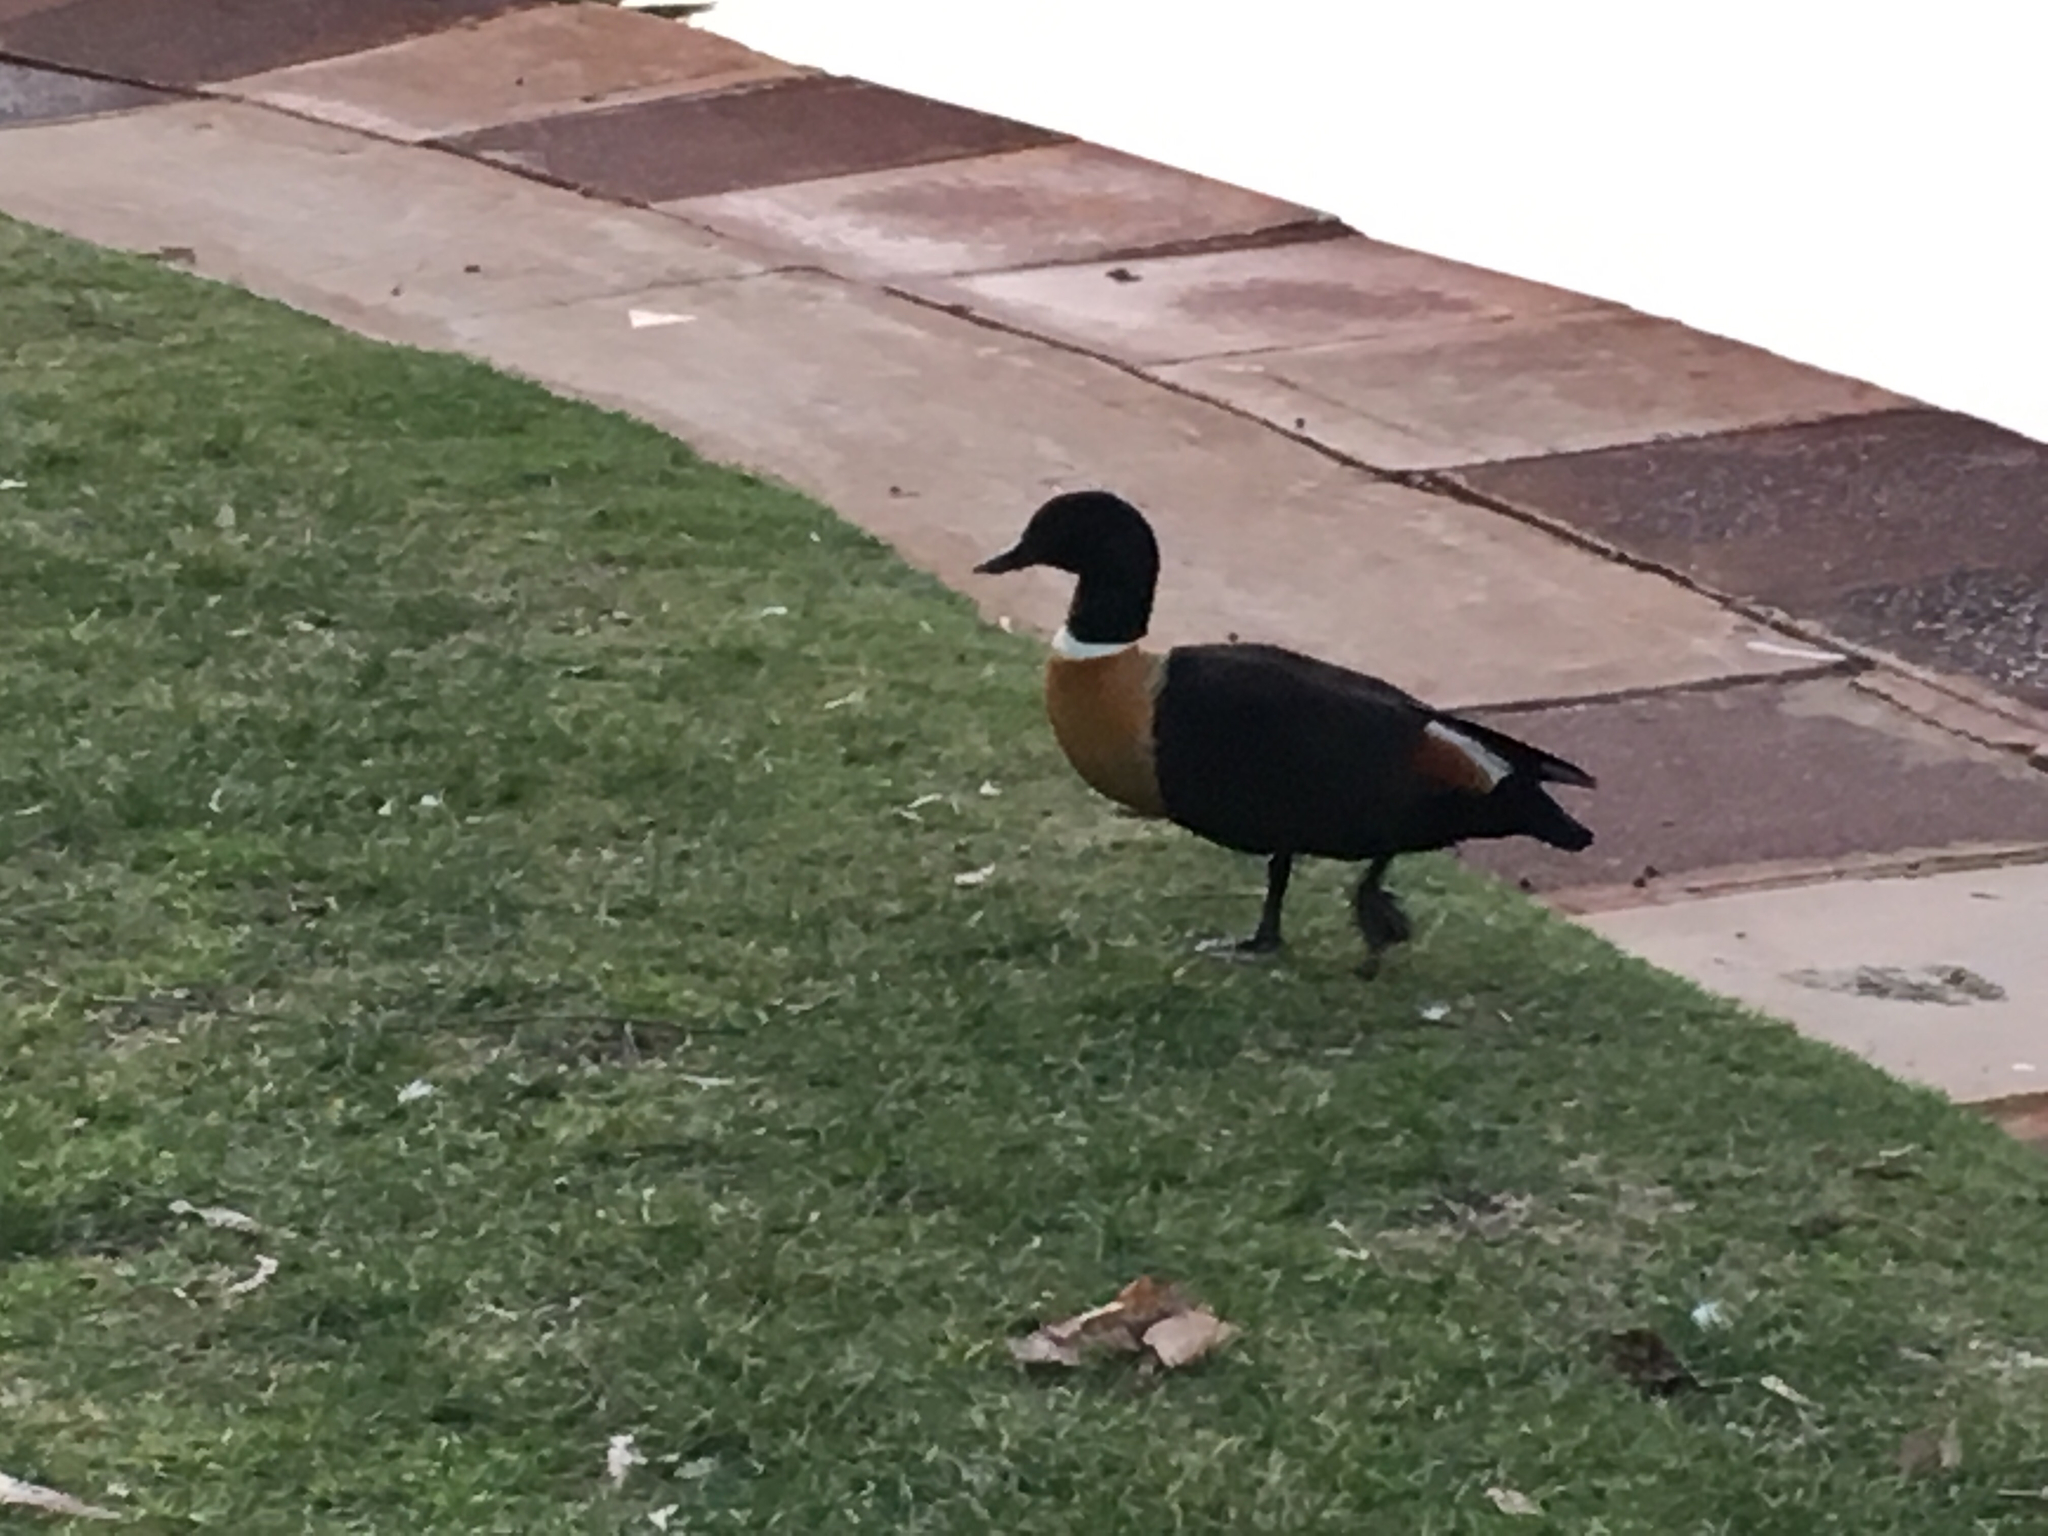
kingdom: Animalia
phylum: Chordata
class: Aves
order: Anseriformes
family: Anatidae
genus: Tadorna
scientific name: Tadorna tadornoides
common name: Australian shelduck
